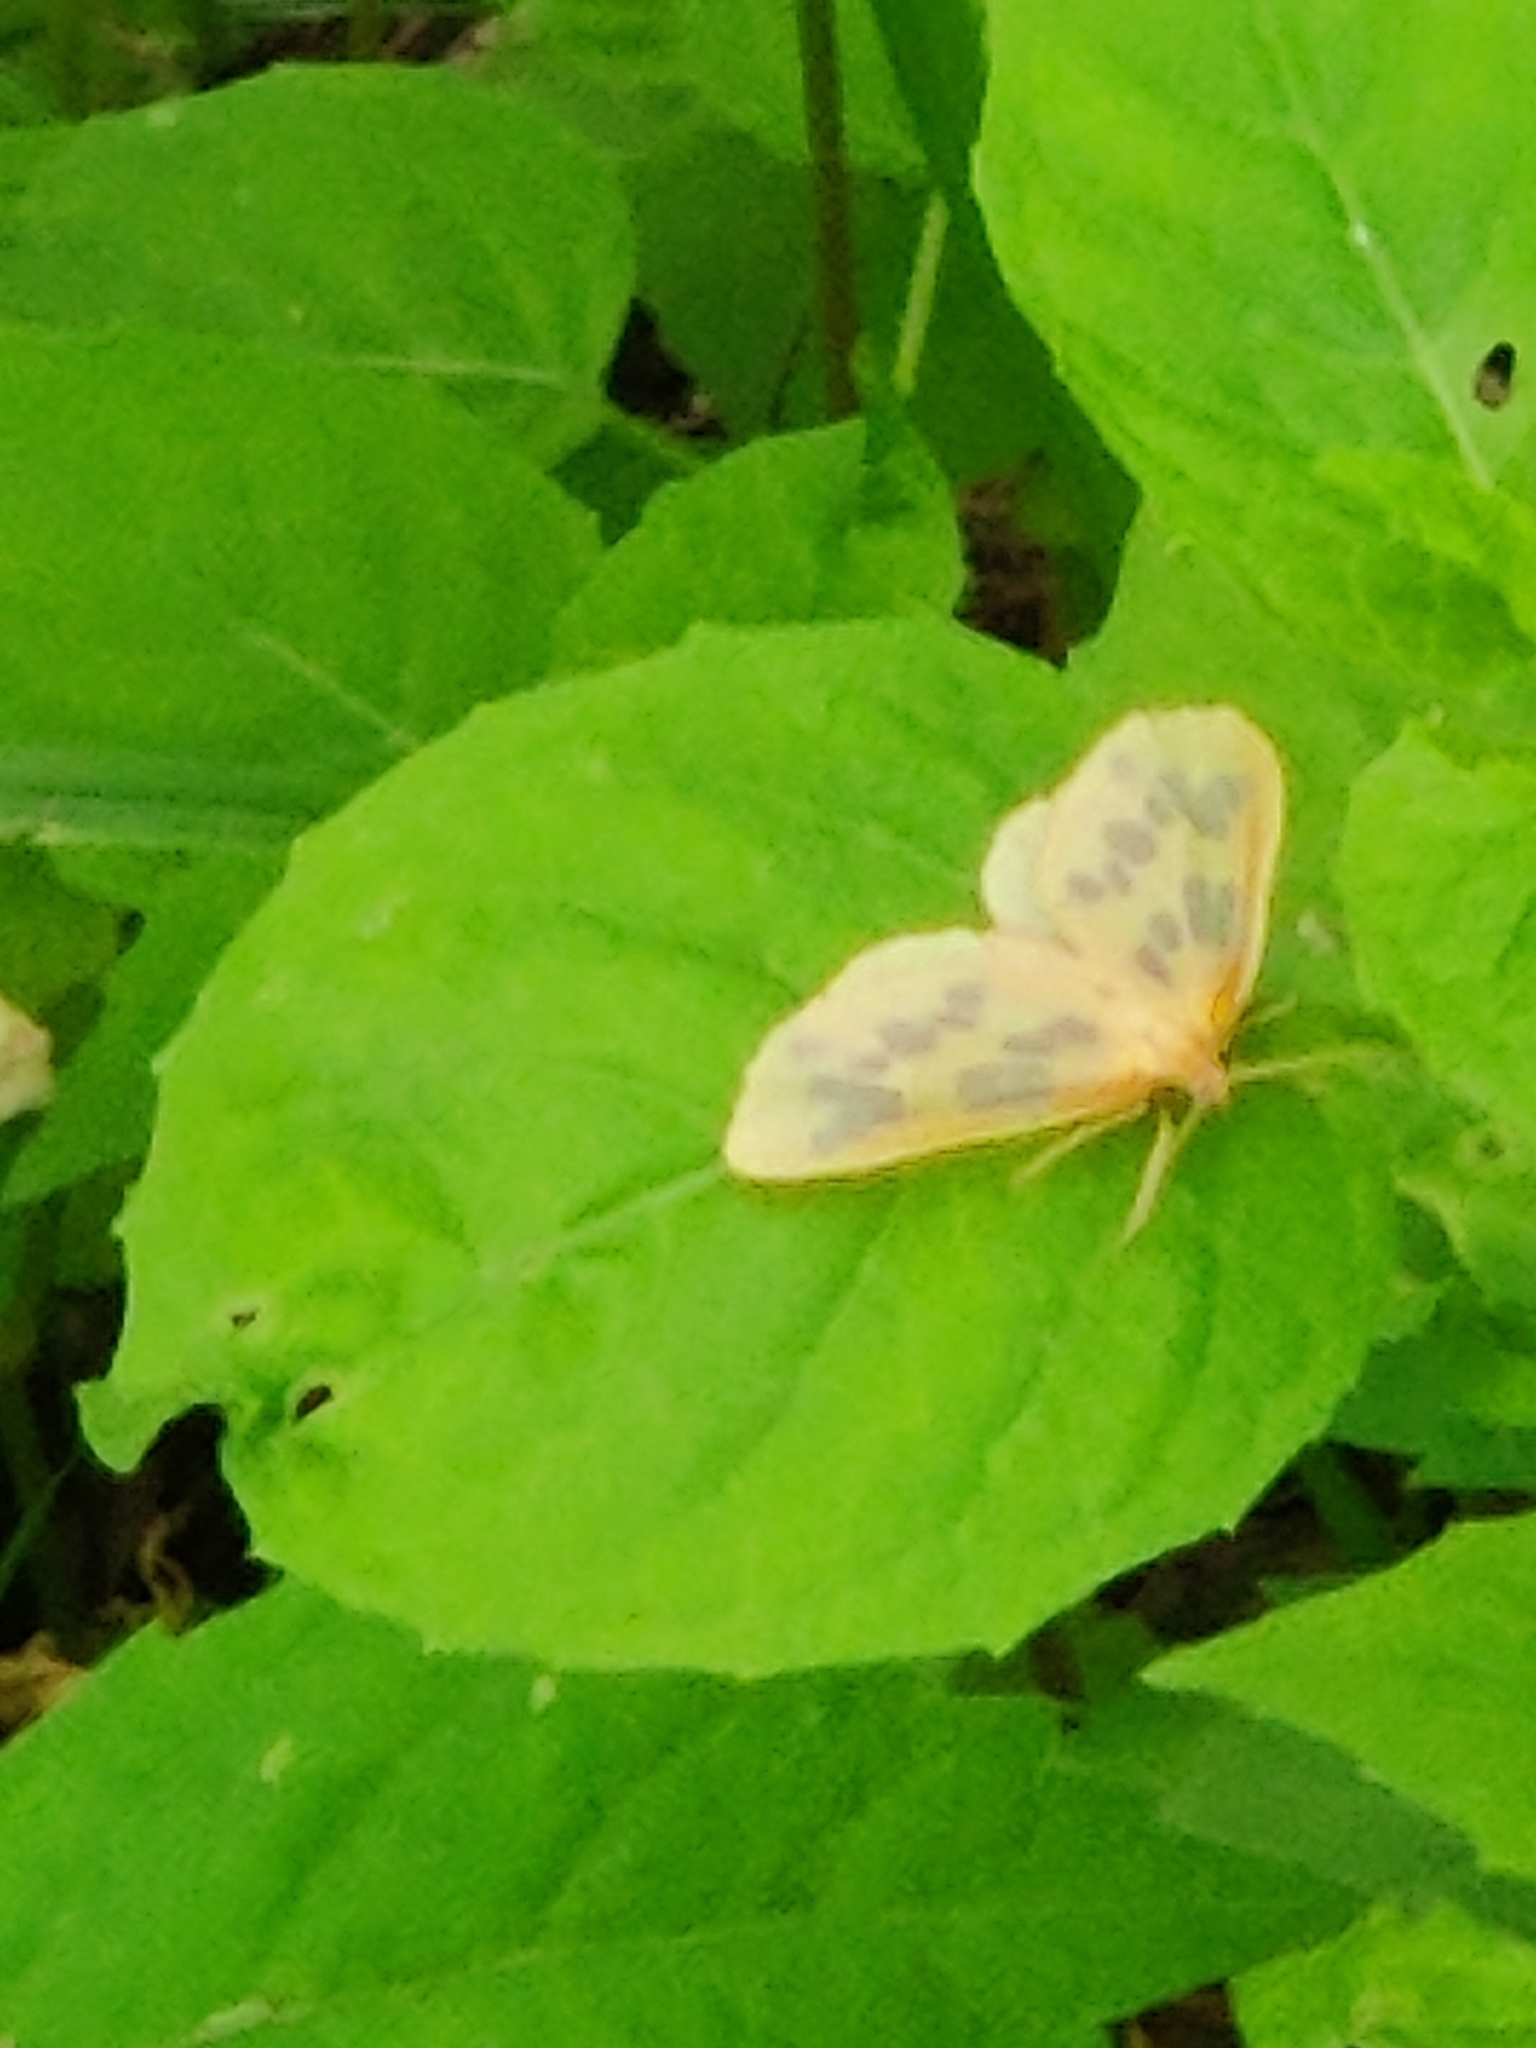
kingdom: Animalia
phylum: Arthropoda
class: Insecta
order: Lepidoptera
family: Geometridae
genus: Eubaphe
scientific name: Eubaphe mendica
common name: Beggar
